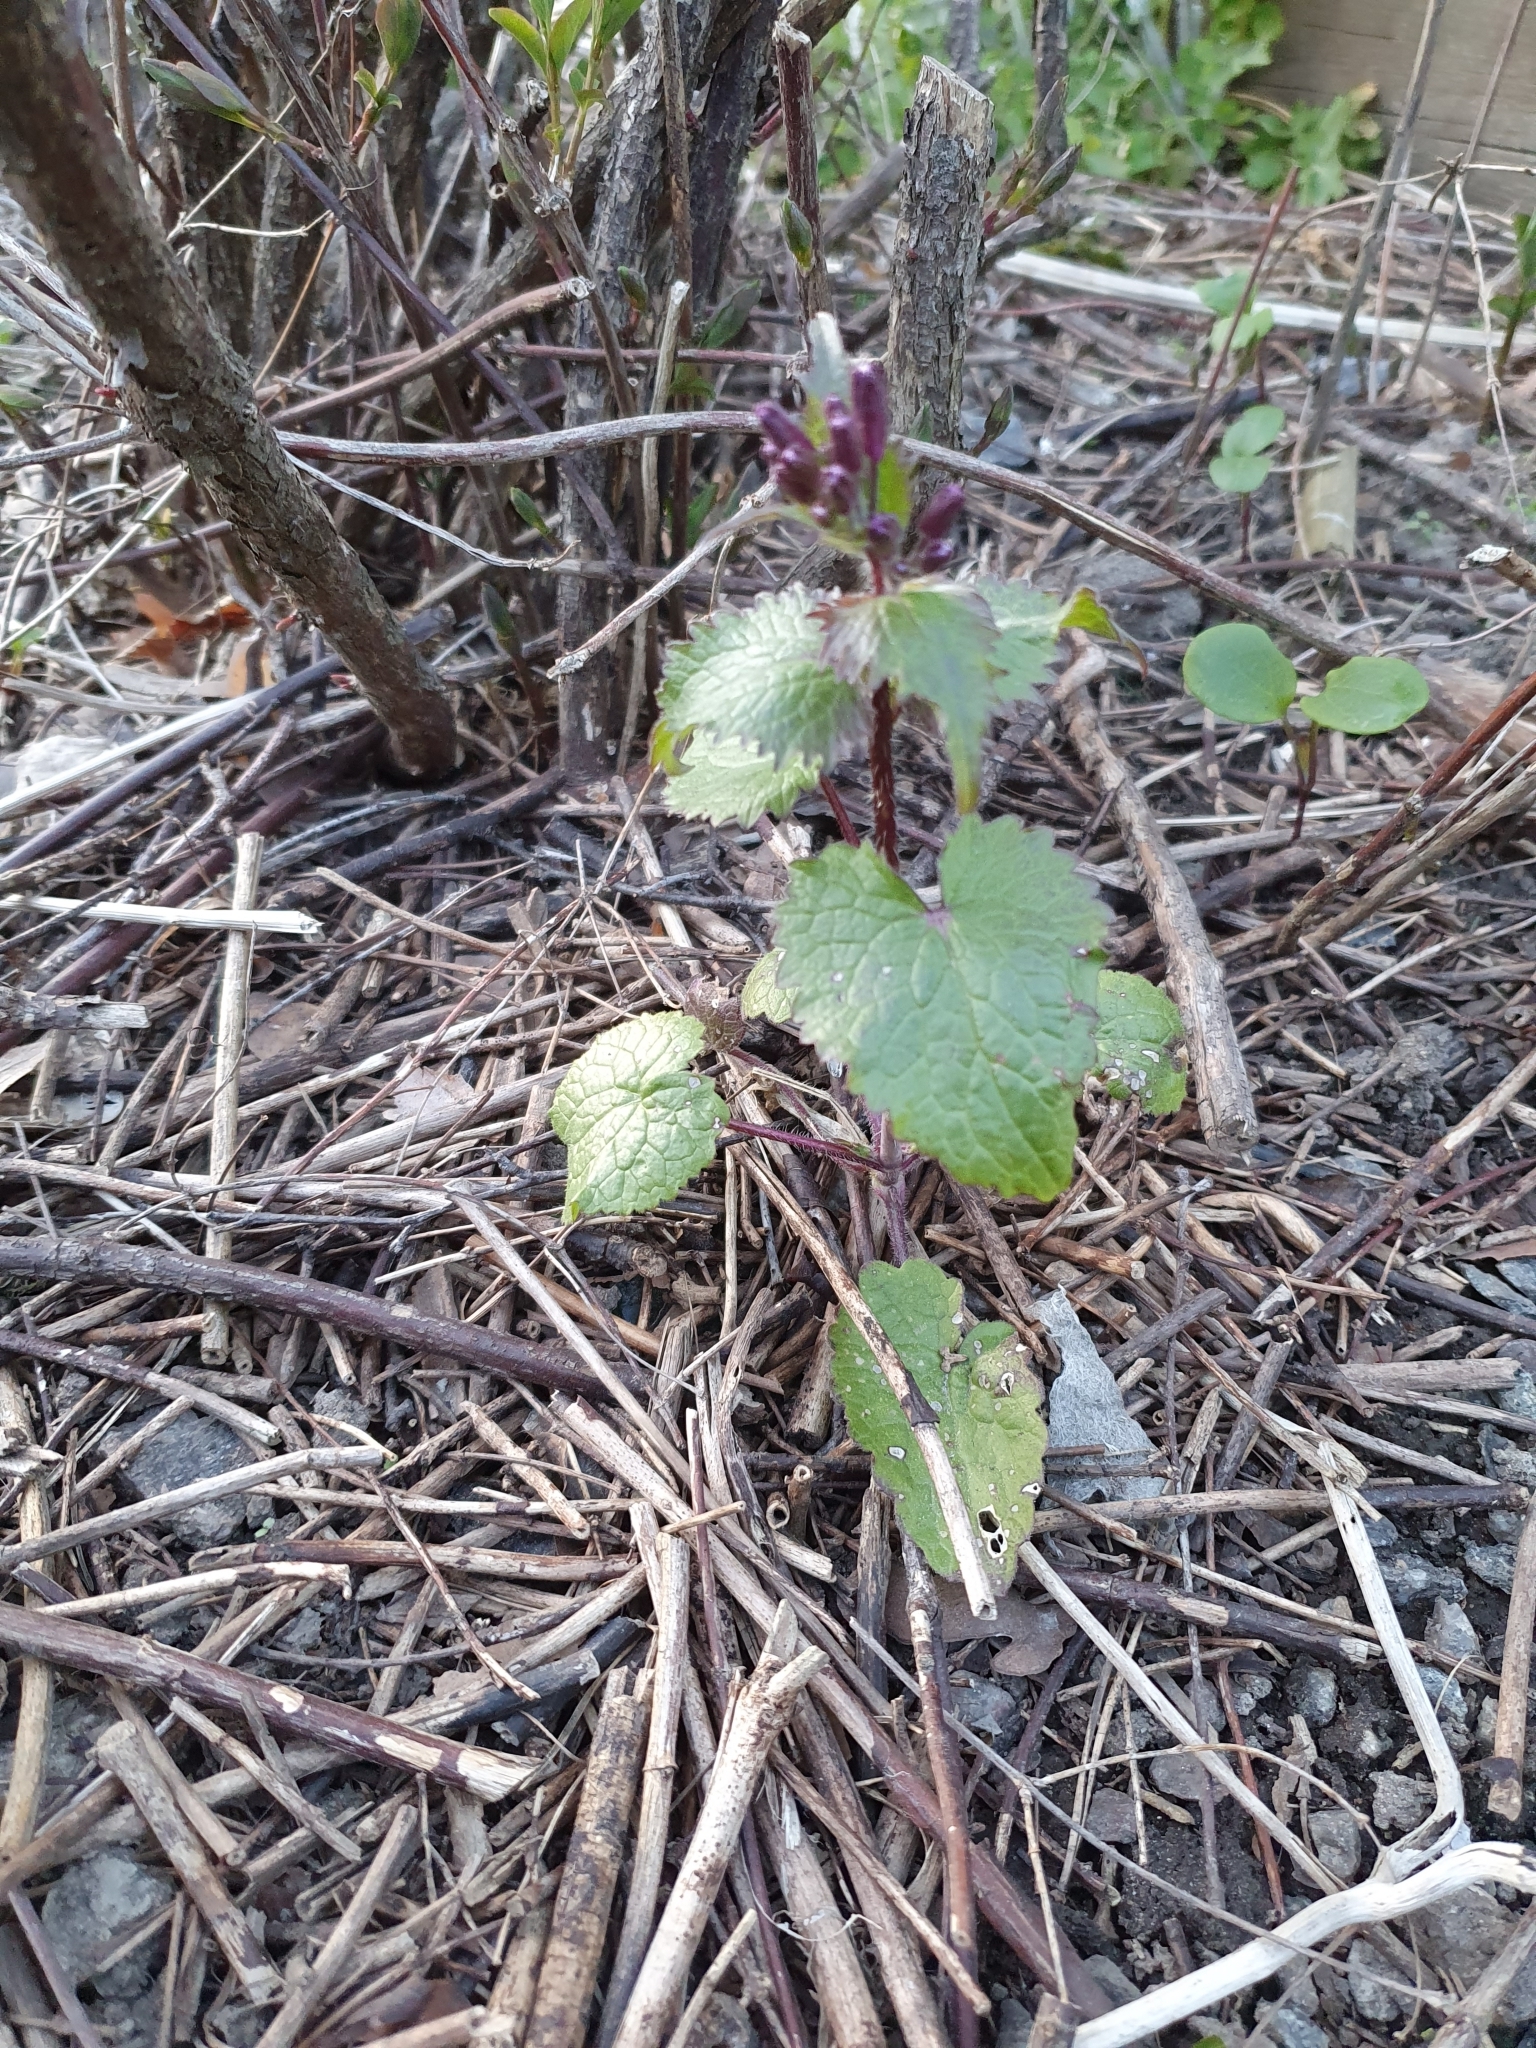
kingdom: Plantae
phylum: Tracheophyta
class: Magnoliopsida
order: Brassicales
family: Brassicaceae
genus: Lunaria
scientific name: Lunaria annua
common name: Honesty
